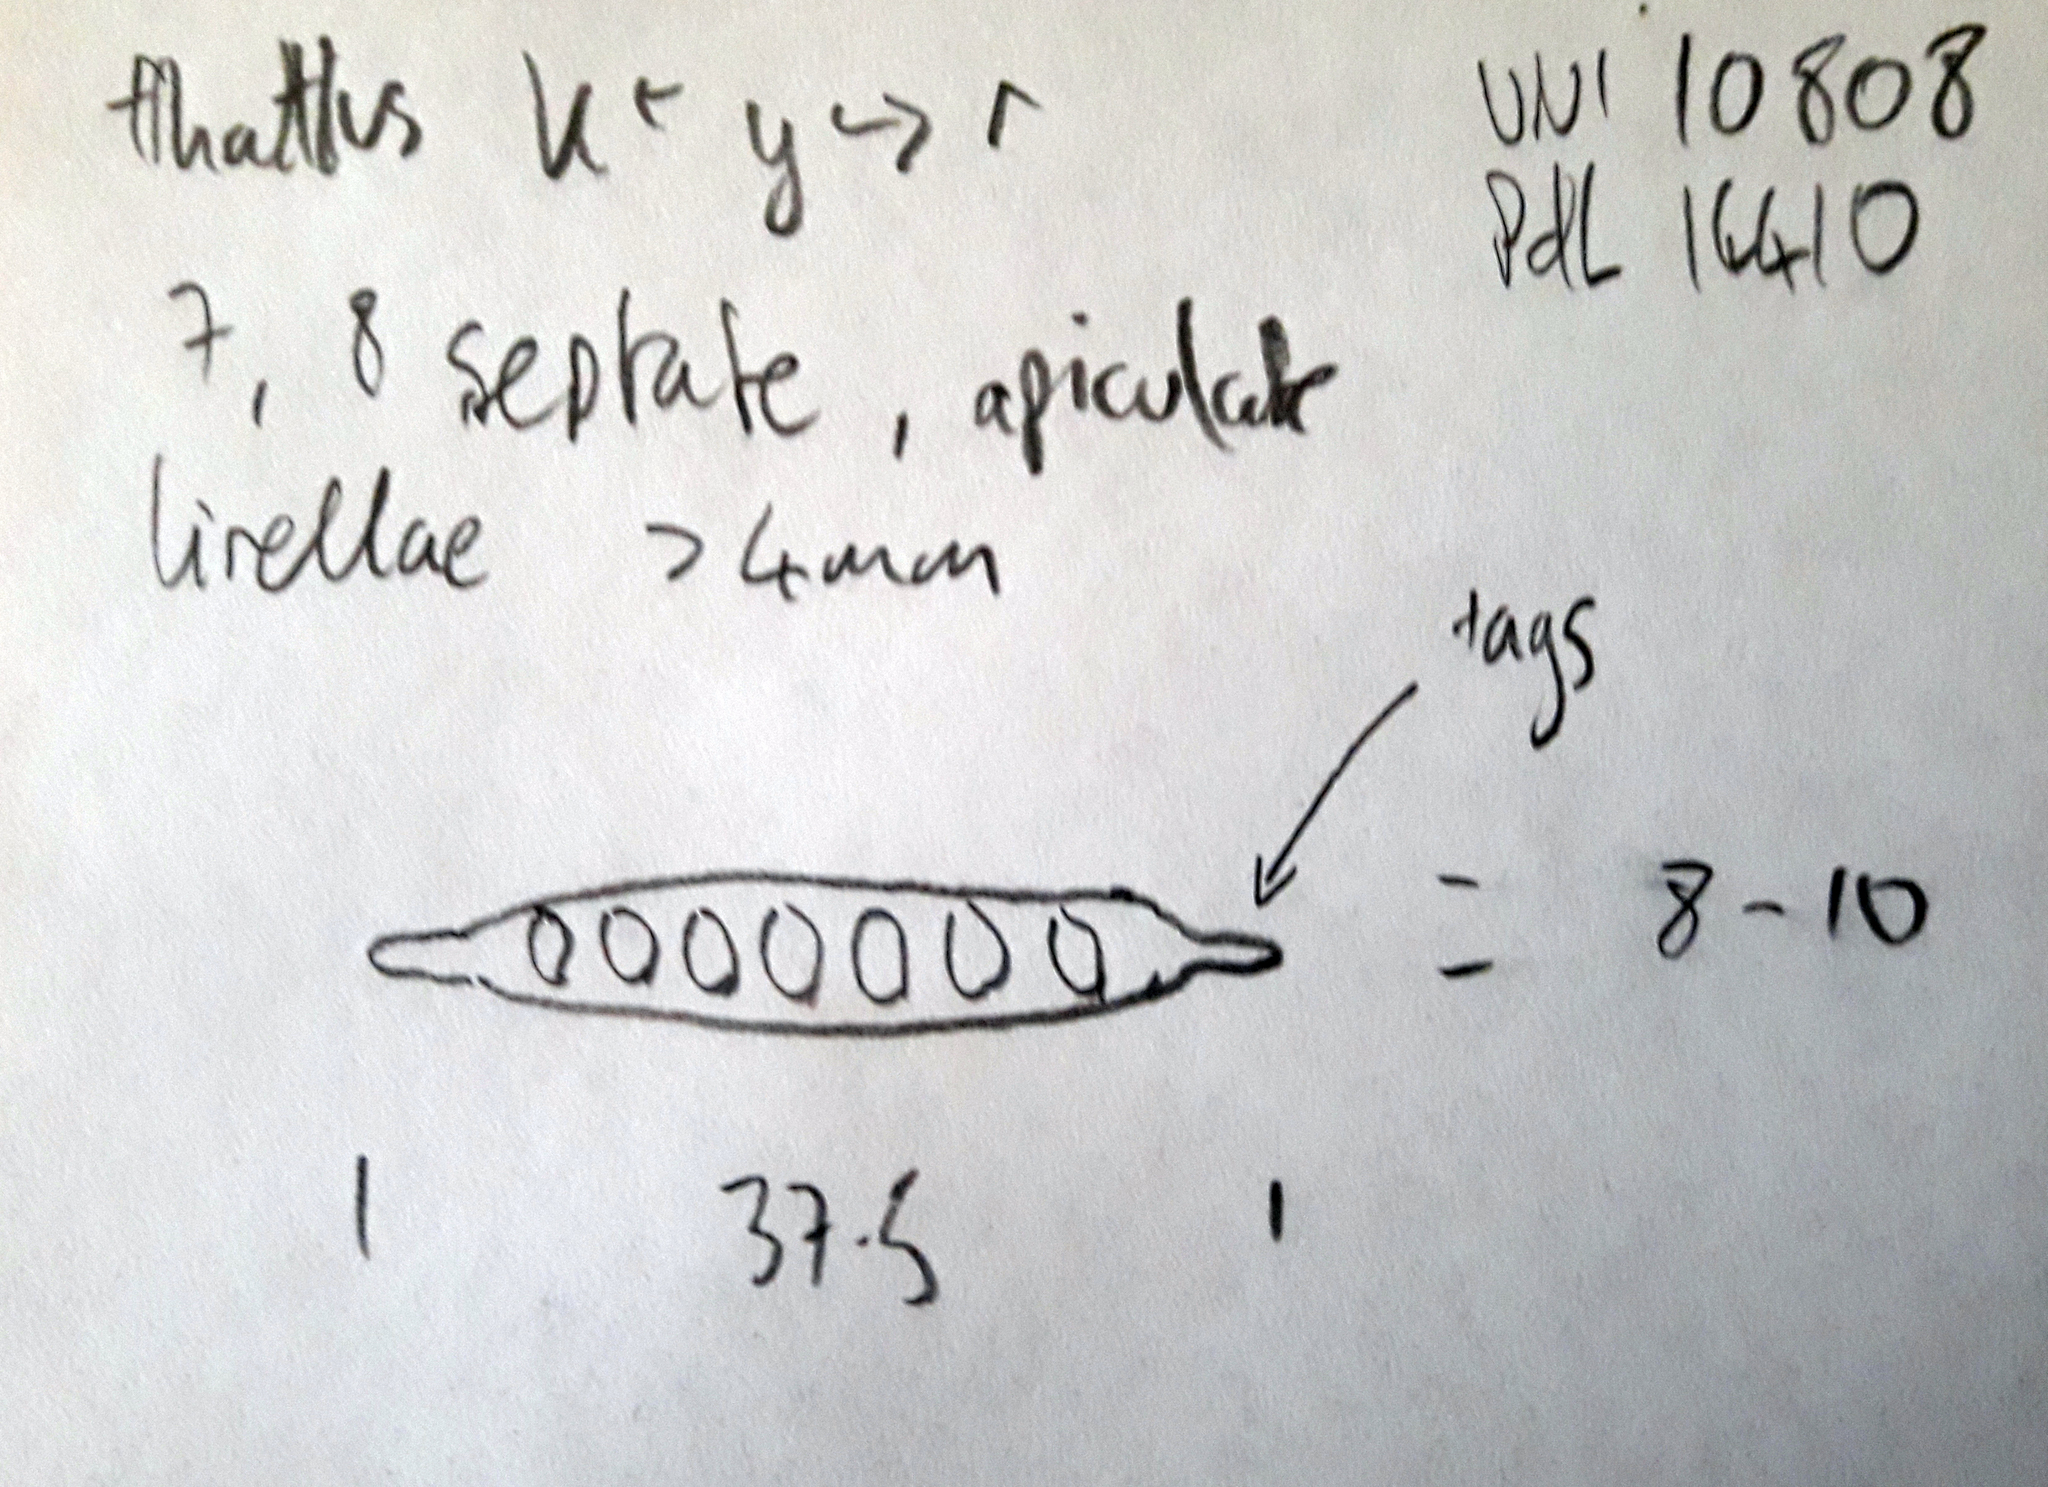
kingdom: Fungi
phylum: Ascomycota
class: Lecanoromycetes
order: Ostropales
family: Graphidaceae
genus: Halegrapha
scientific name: Halegrapha mucronata
